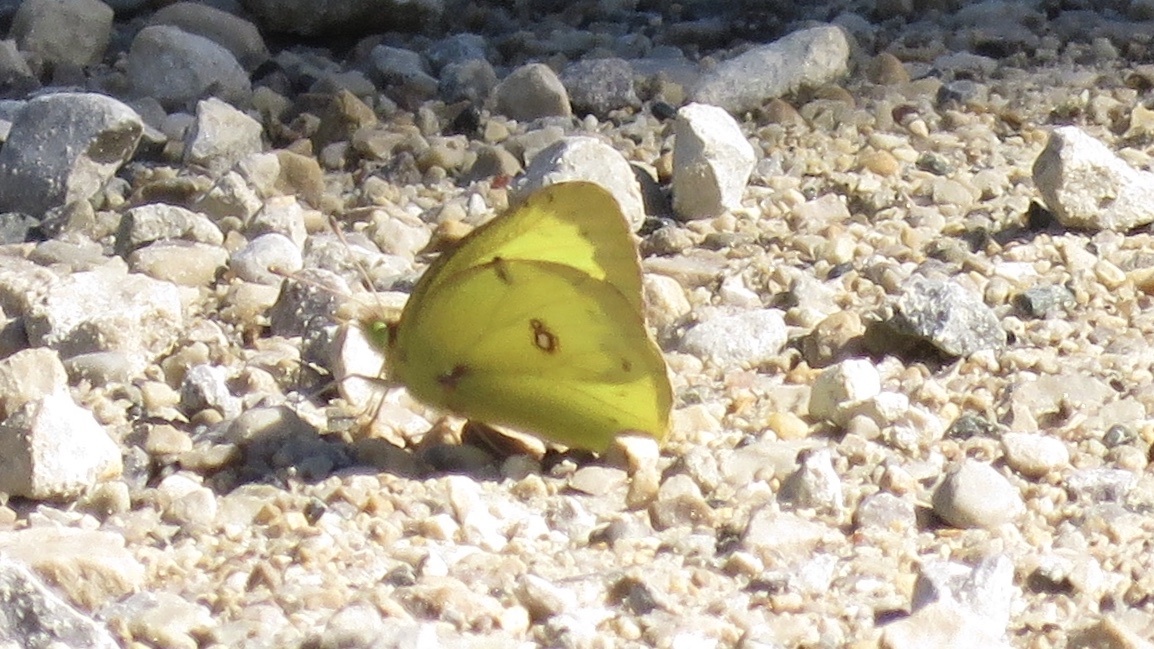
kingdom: Animalia
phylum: Arthropoda
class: Insecta
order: Lepidoptera
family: Pieridae
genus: Colias
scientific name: Colias philodice
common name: Clouded sulphur
